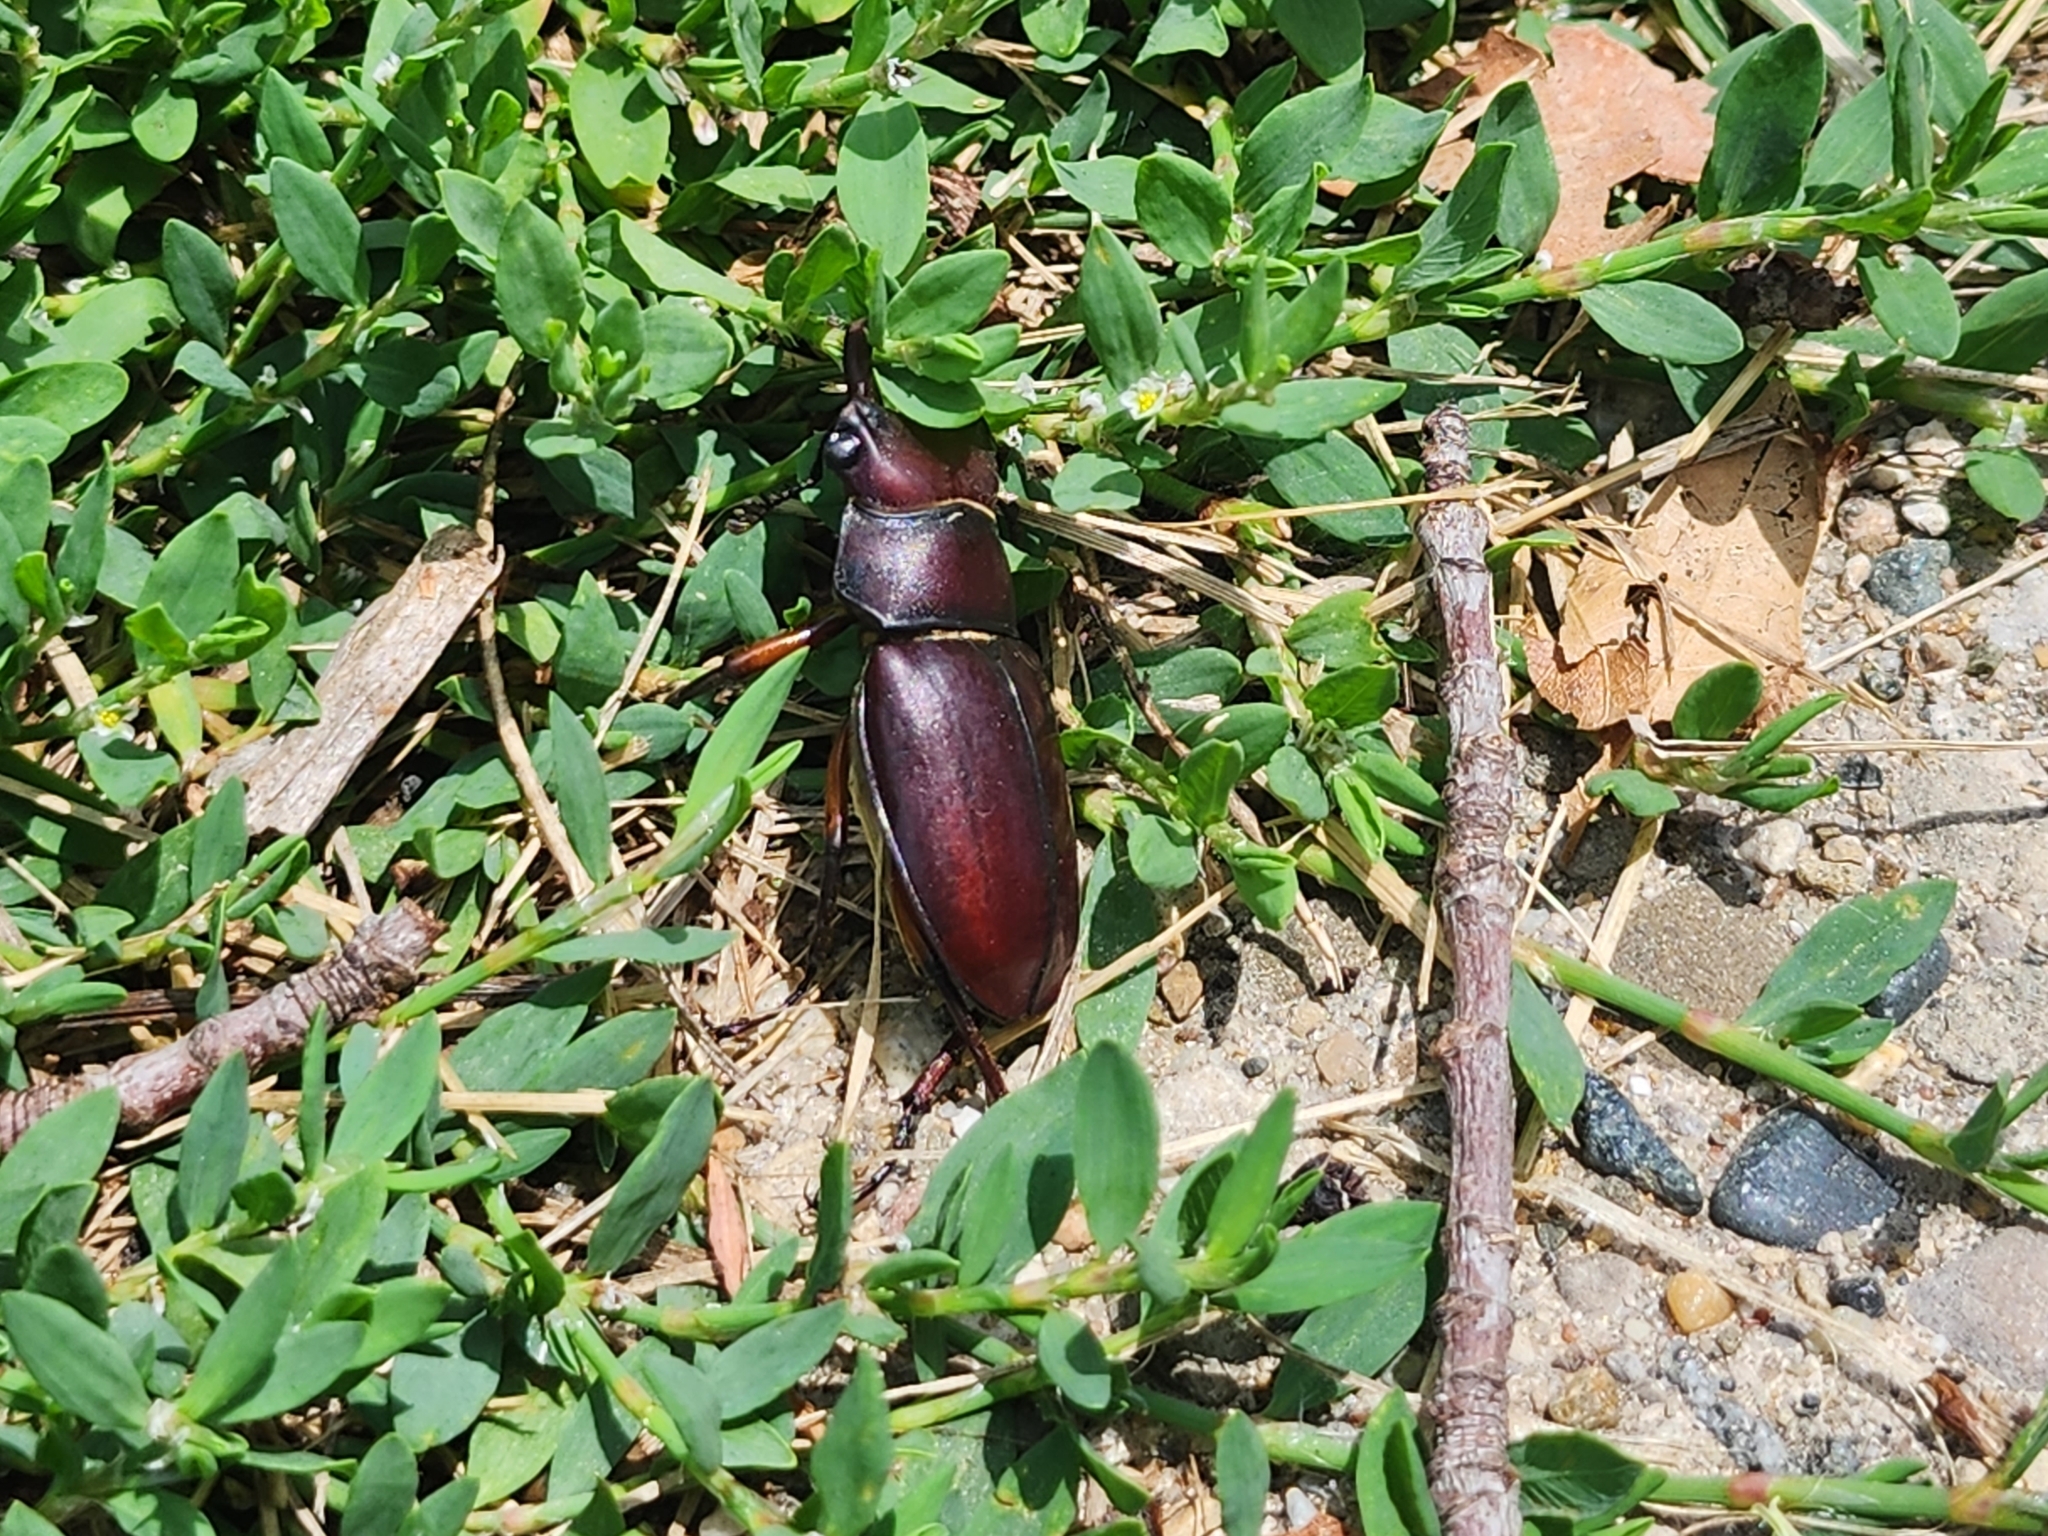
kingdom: Animalia
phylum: Arthropoda
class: Insecta
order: Coleoptera
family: Lucanidae
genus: Lucanus
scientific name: Lucanus capreolus
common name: Stag beetle
